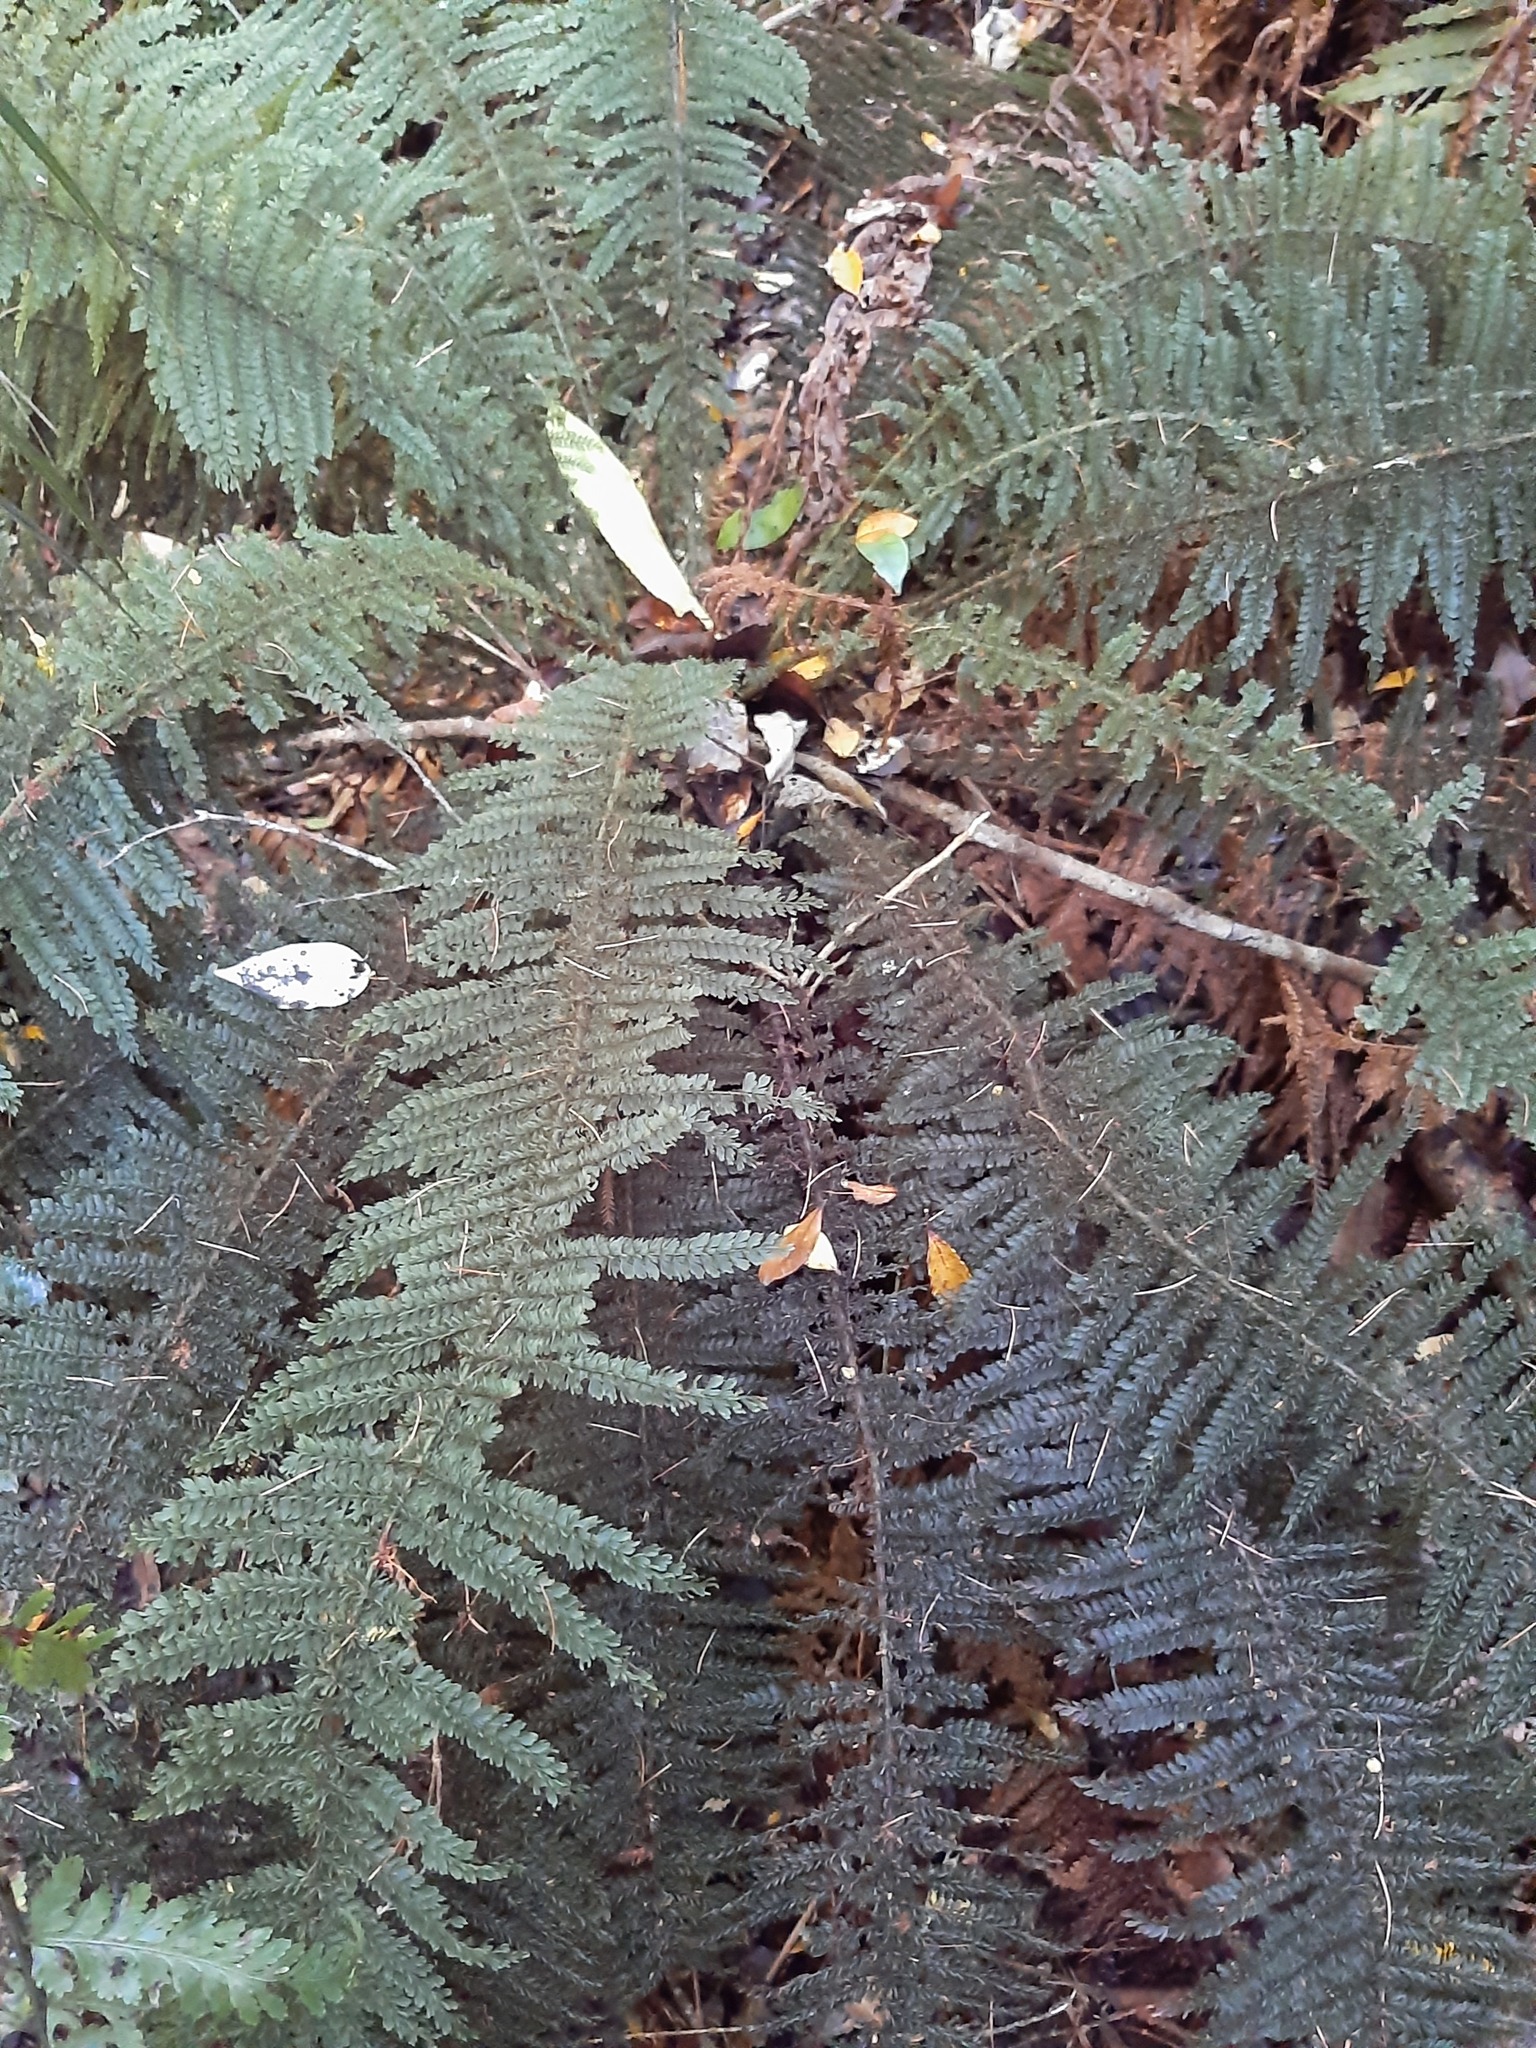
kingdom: Plantae
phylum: Tracheophyta
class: Polypodiopsida
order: Osmundales
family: Osmundaceae
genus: Leptopteris
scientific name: Leptopteris superba
